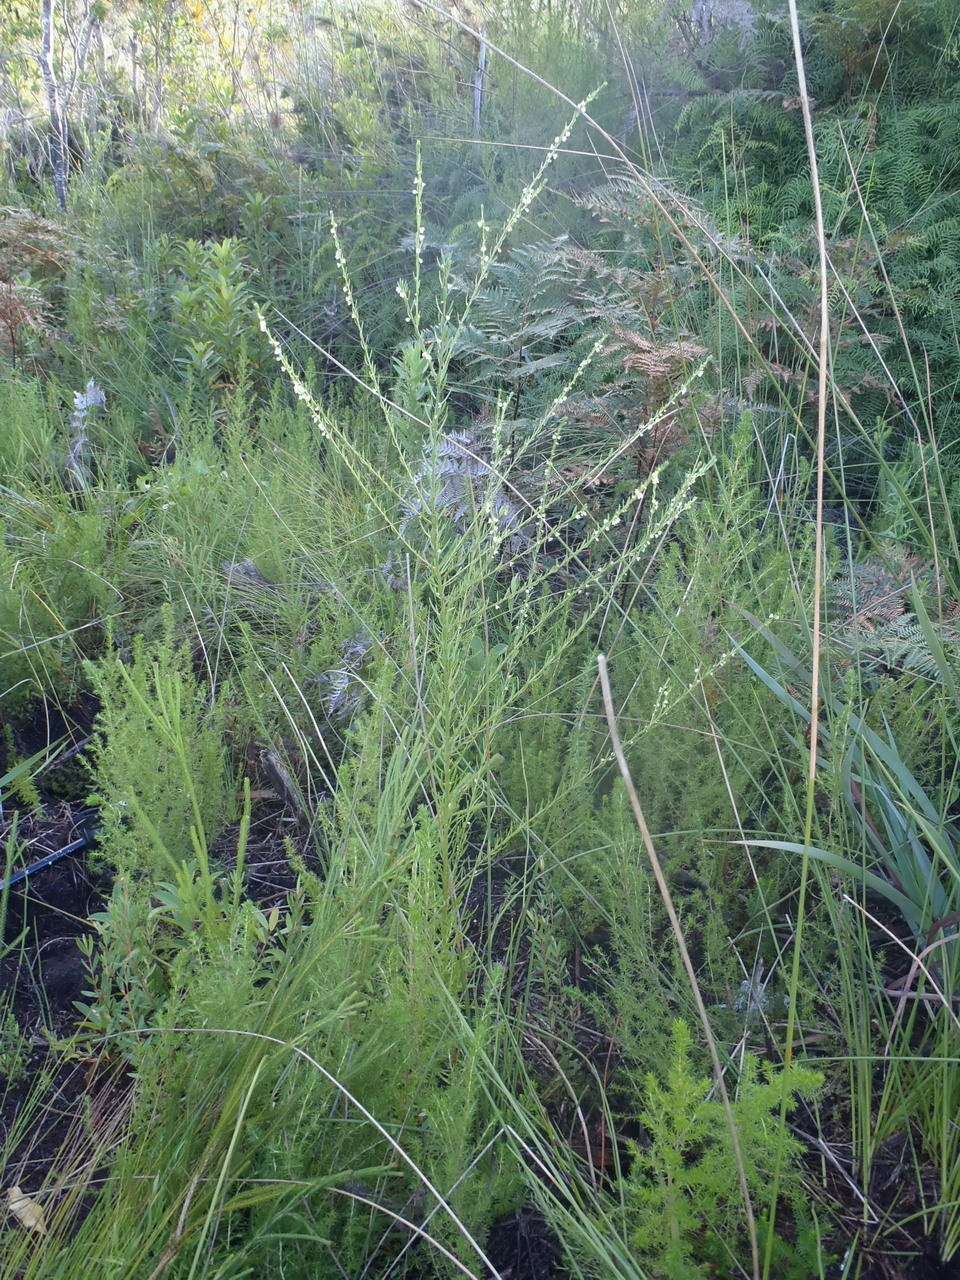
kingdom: Plantae
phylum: Tracheophyta
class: Magnoliopsida
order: Malpighiales
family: Peraceae
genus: Clutia
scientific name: Clutia ericoides
